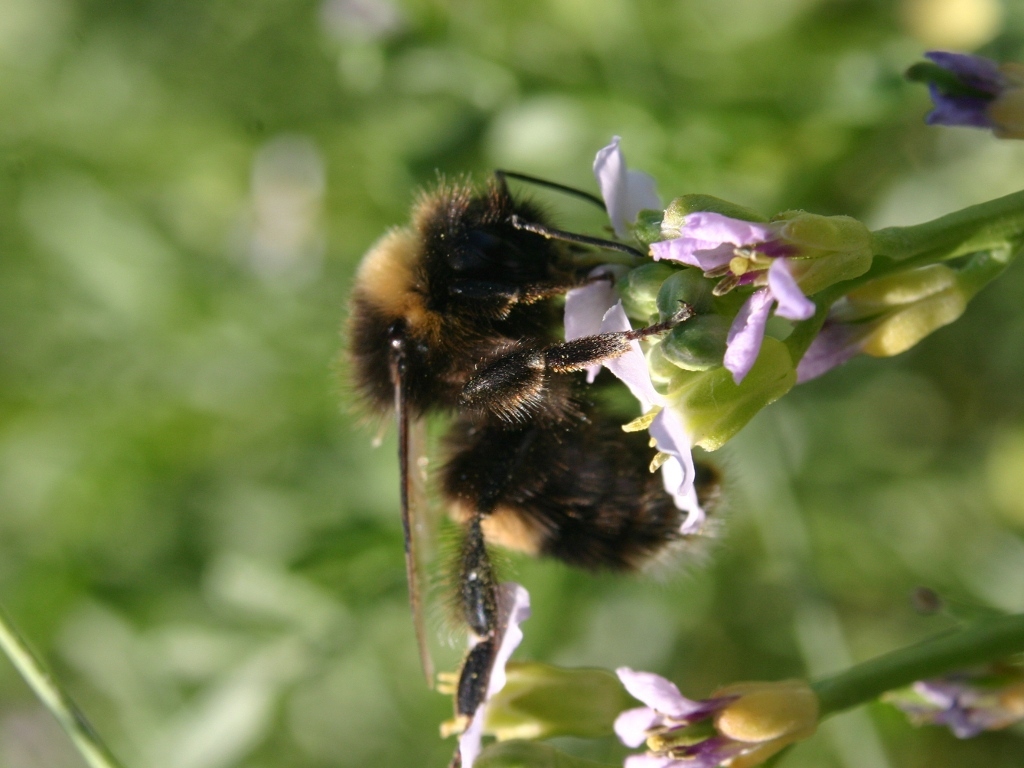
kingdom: Animalia
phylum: Arthropoda
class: Insecta
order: Hymenoptera
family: Apidae
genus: Bombus
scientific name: Bombus terrestris
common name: Buff-tailed bumblebee
